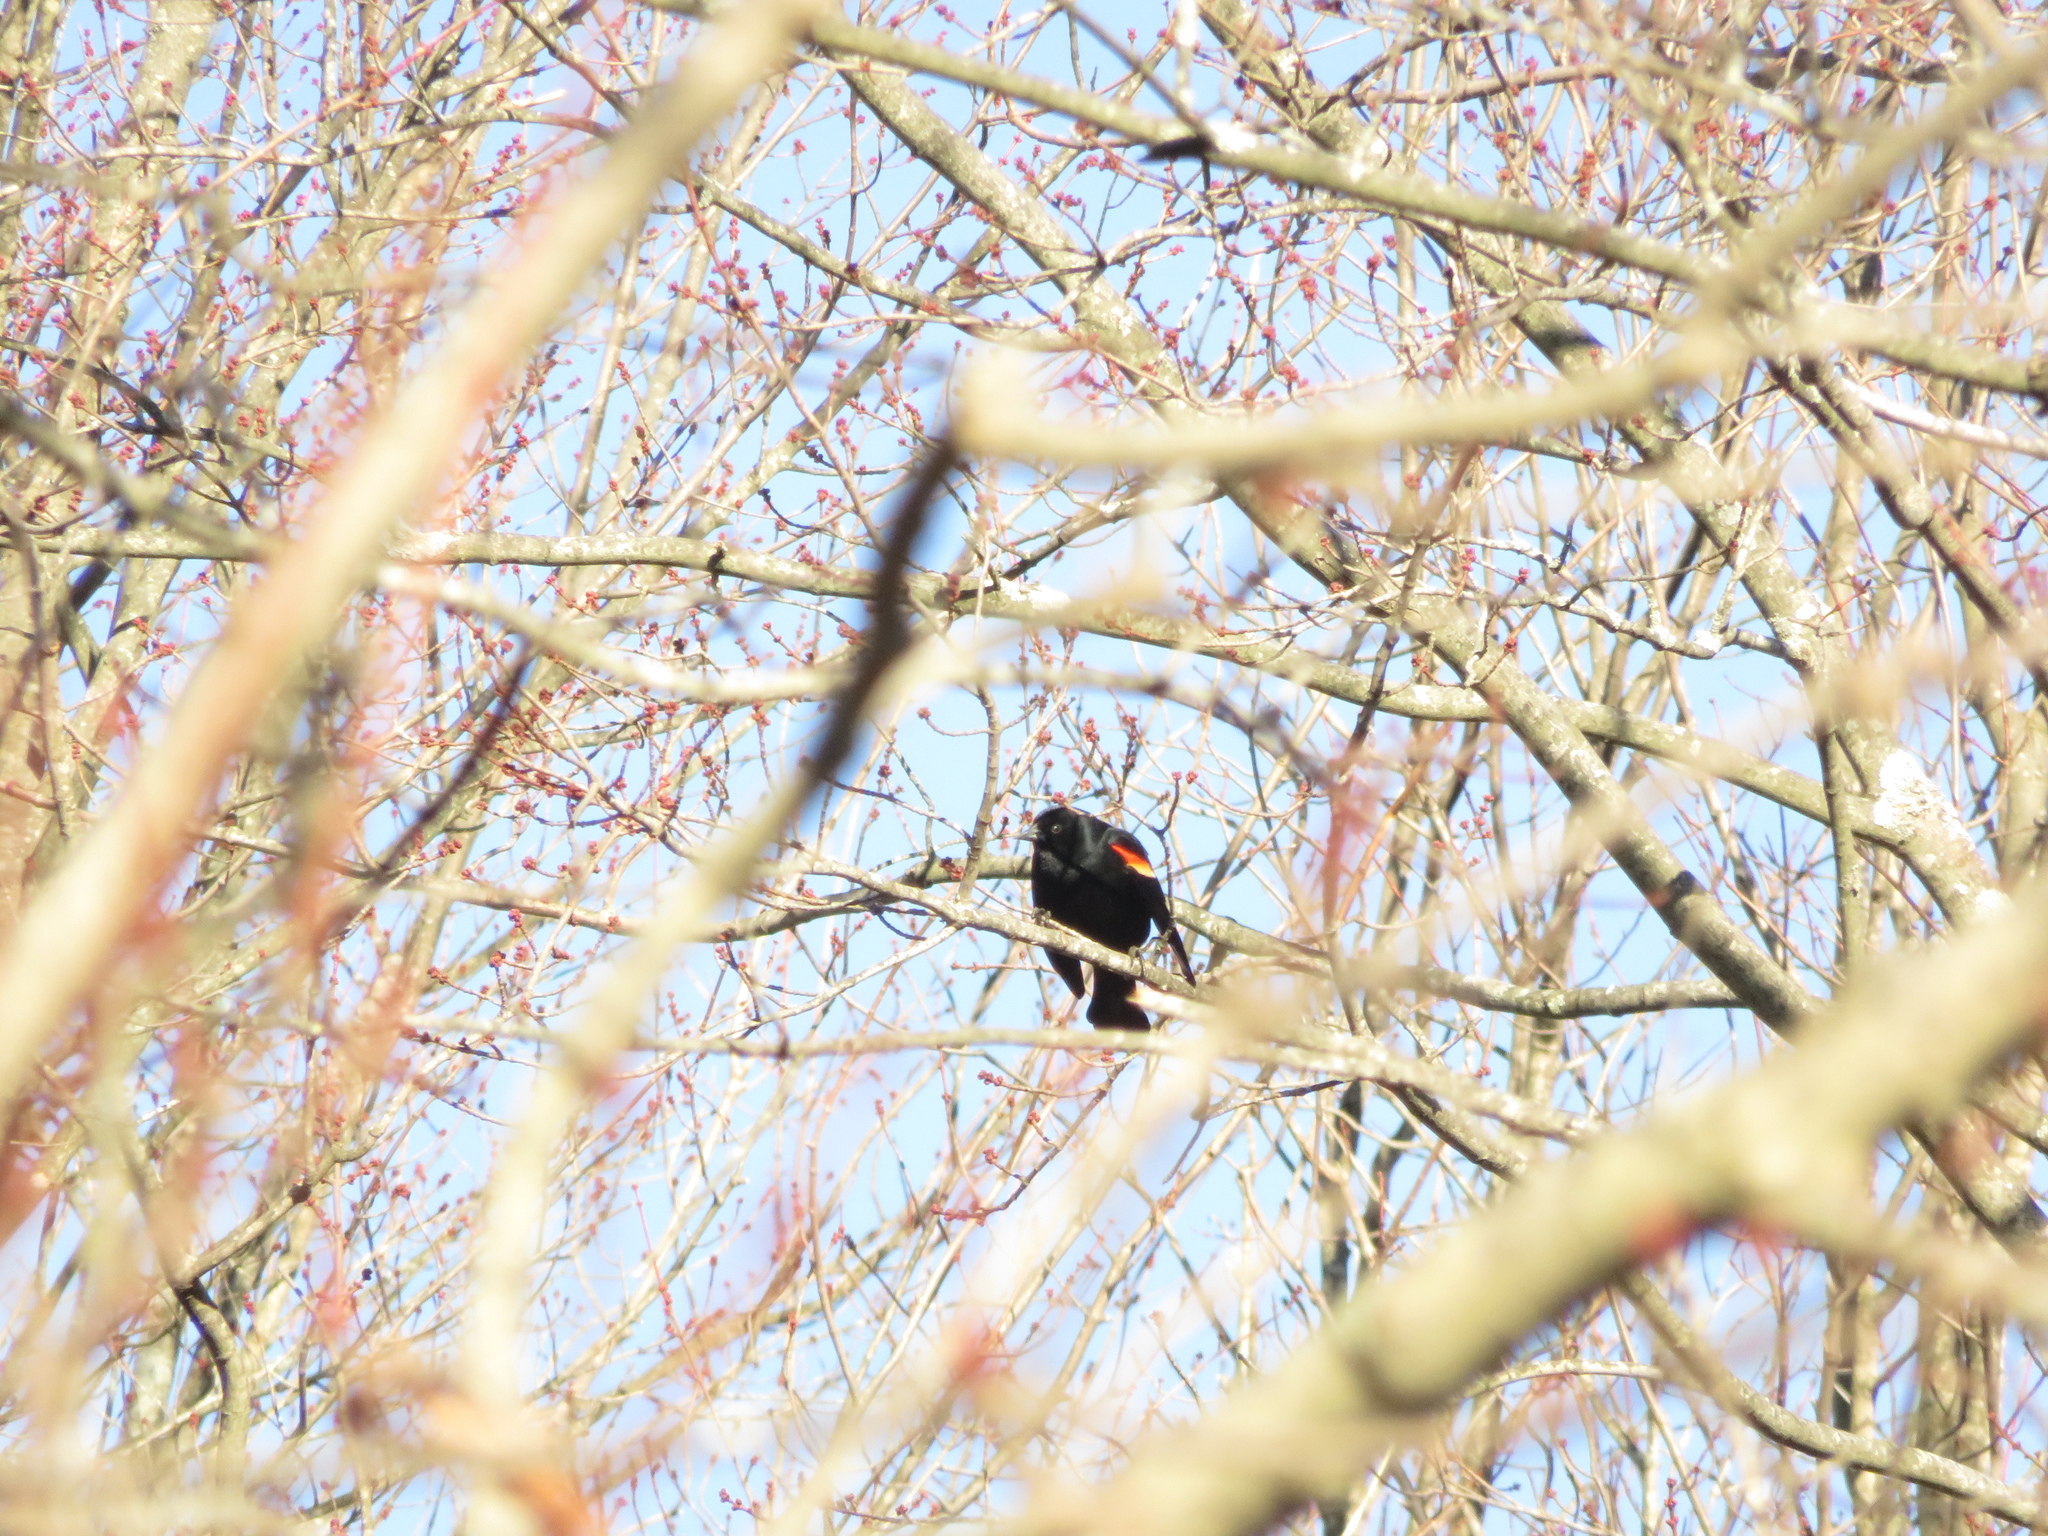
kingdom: Animalia
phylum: Chordata
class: Aves
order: Passeriformes
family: Icteridae
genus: Agelaius
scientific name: Agelaius phoeniceus
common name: Red-winged blackbird
